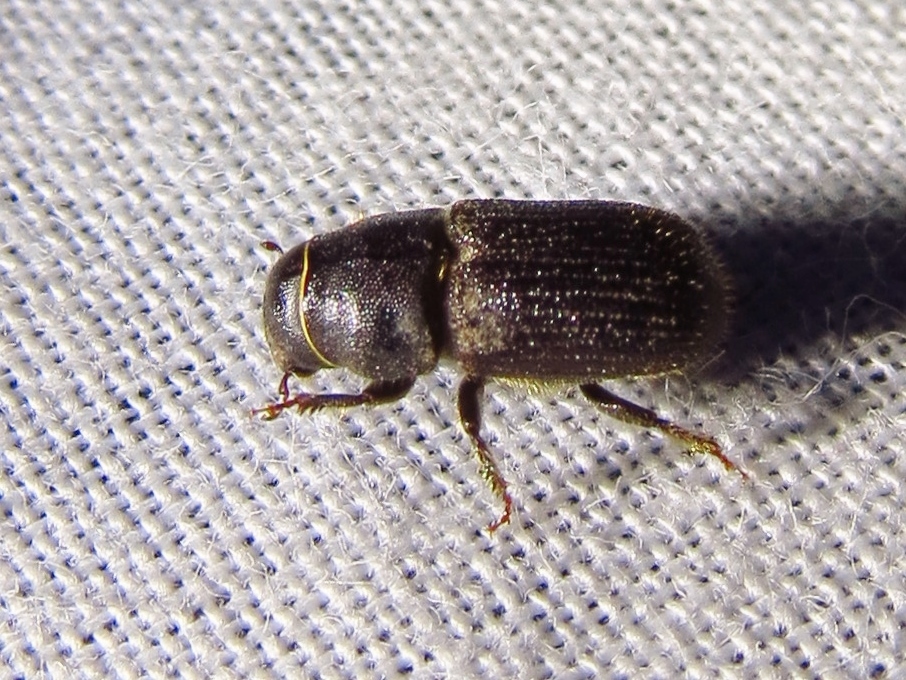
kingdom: Animalia
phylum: Arthropoda
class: Insecta
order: Coleoptera
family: Curculionidae
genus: Dendroctonus
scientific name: Dendroctonus terebrans
